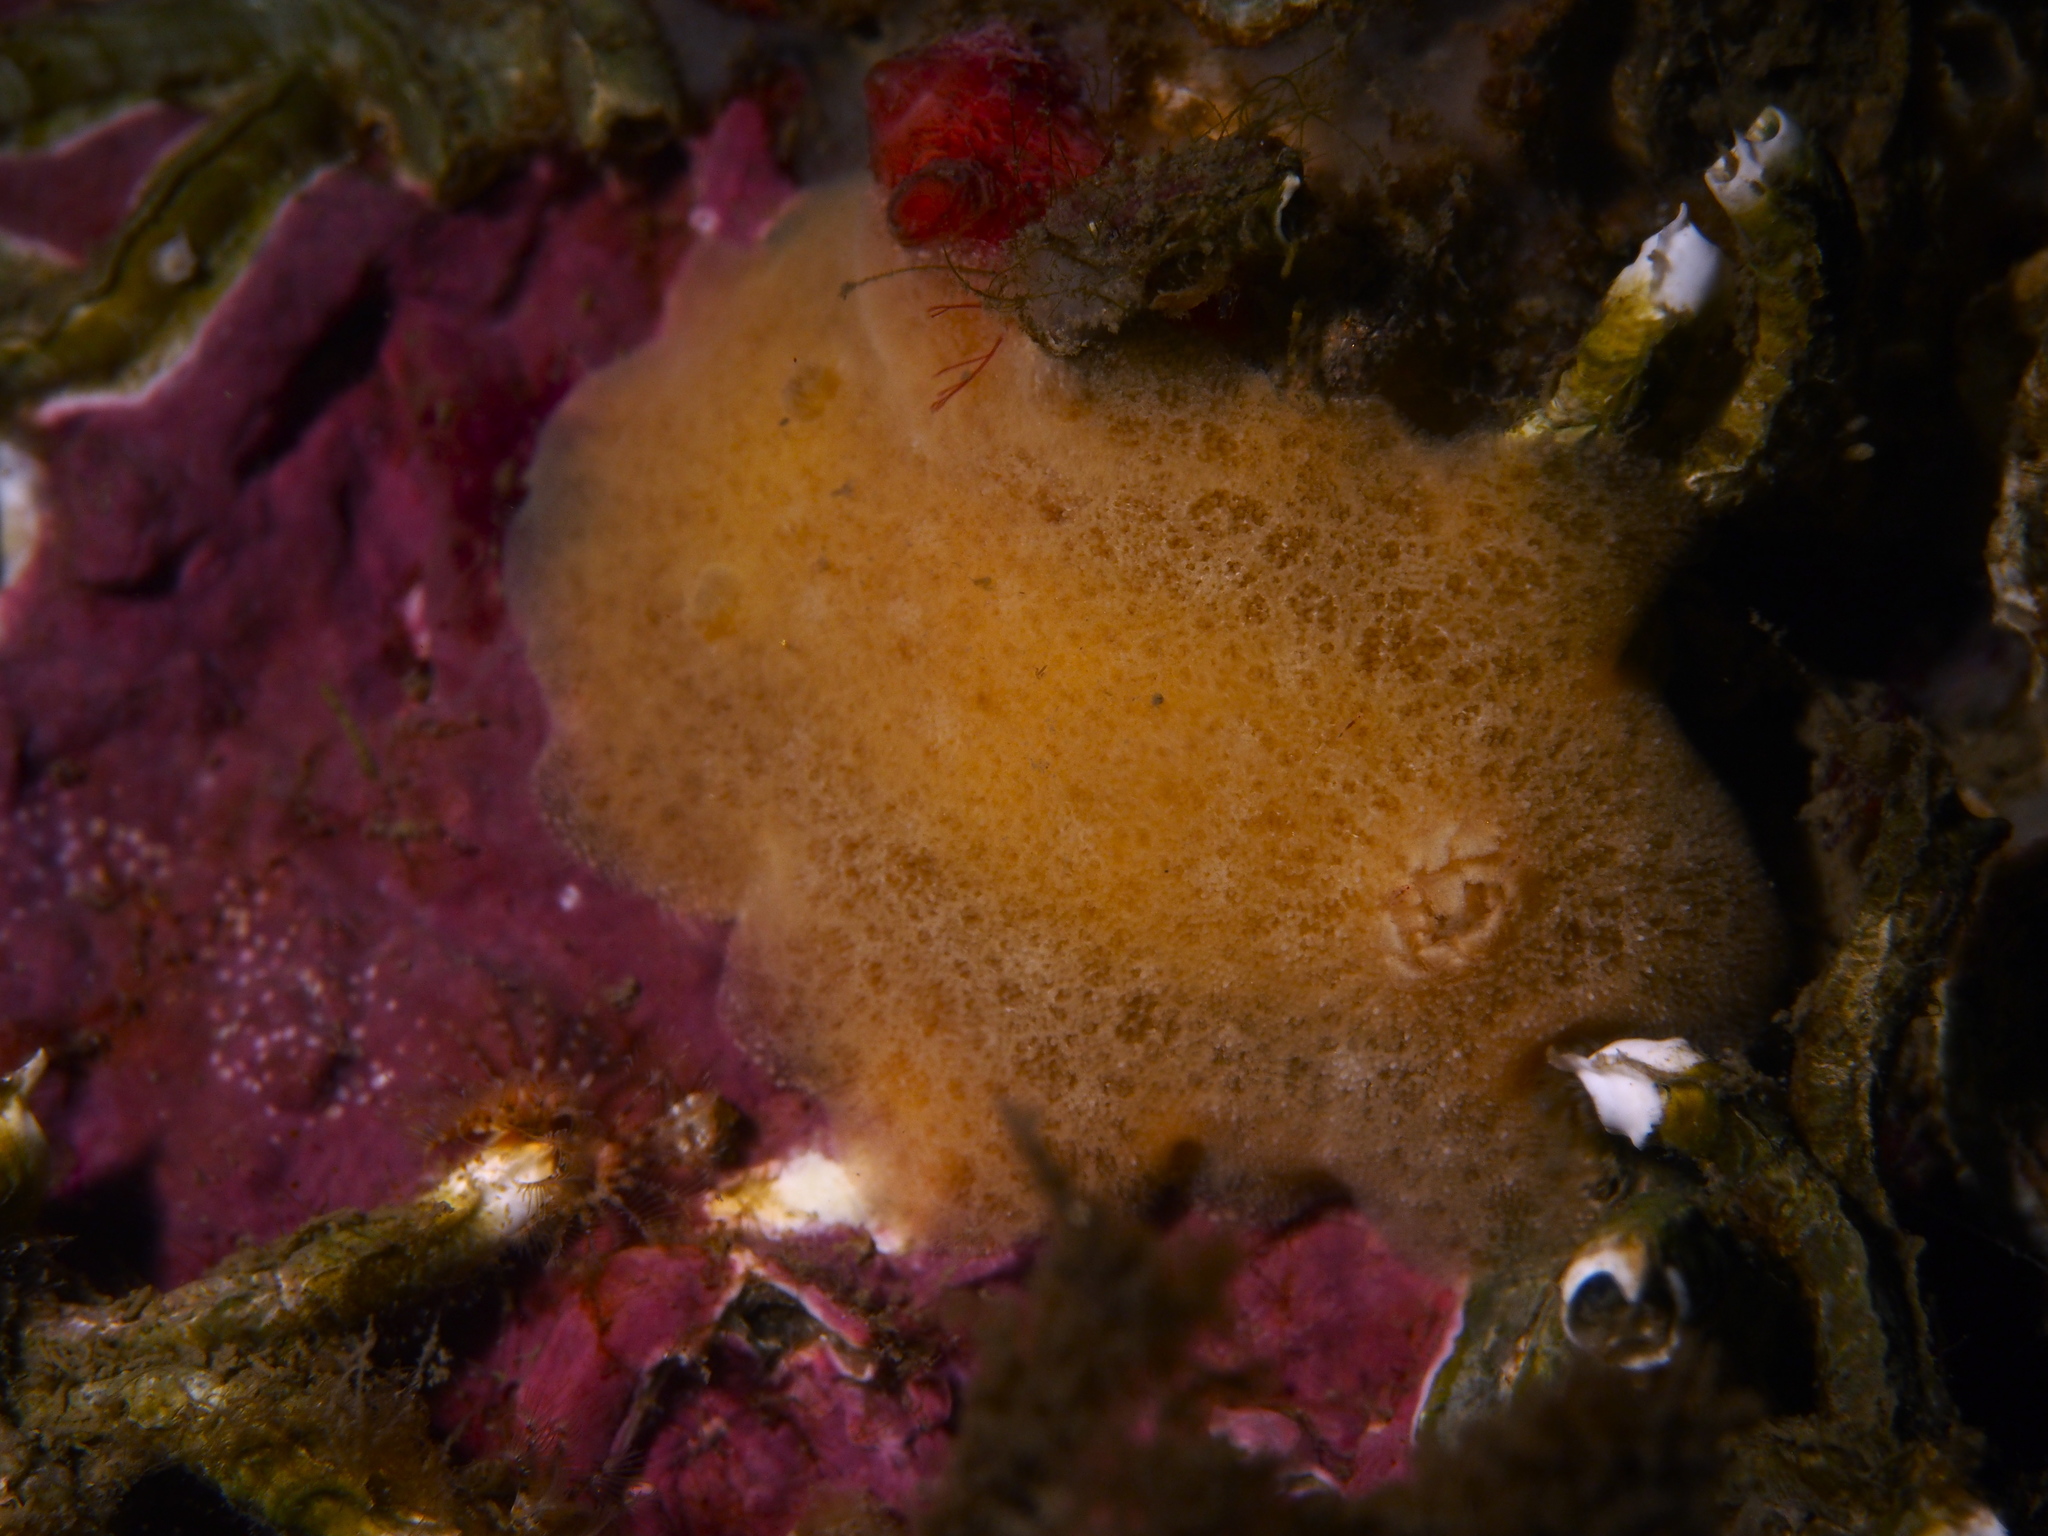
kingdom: Animalia
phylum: Mollusca
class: Gastropoda
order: Nudibranchia
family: Discodorididae
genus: Jorunna
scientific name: Jorunna tomentosa
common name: Grey sea slug
